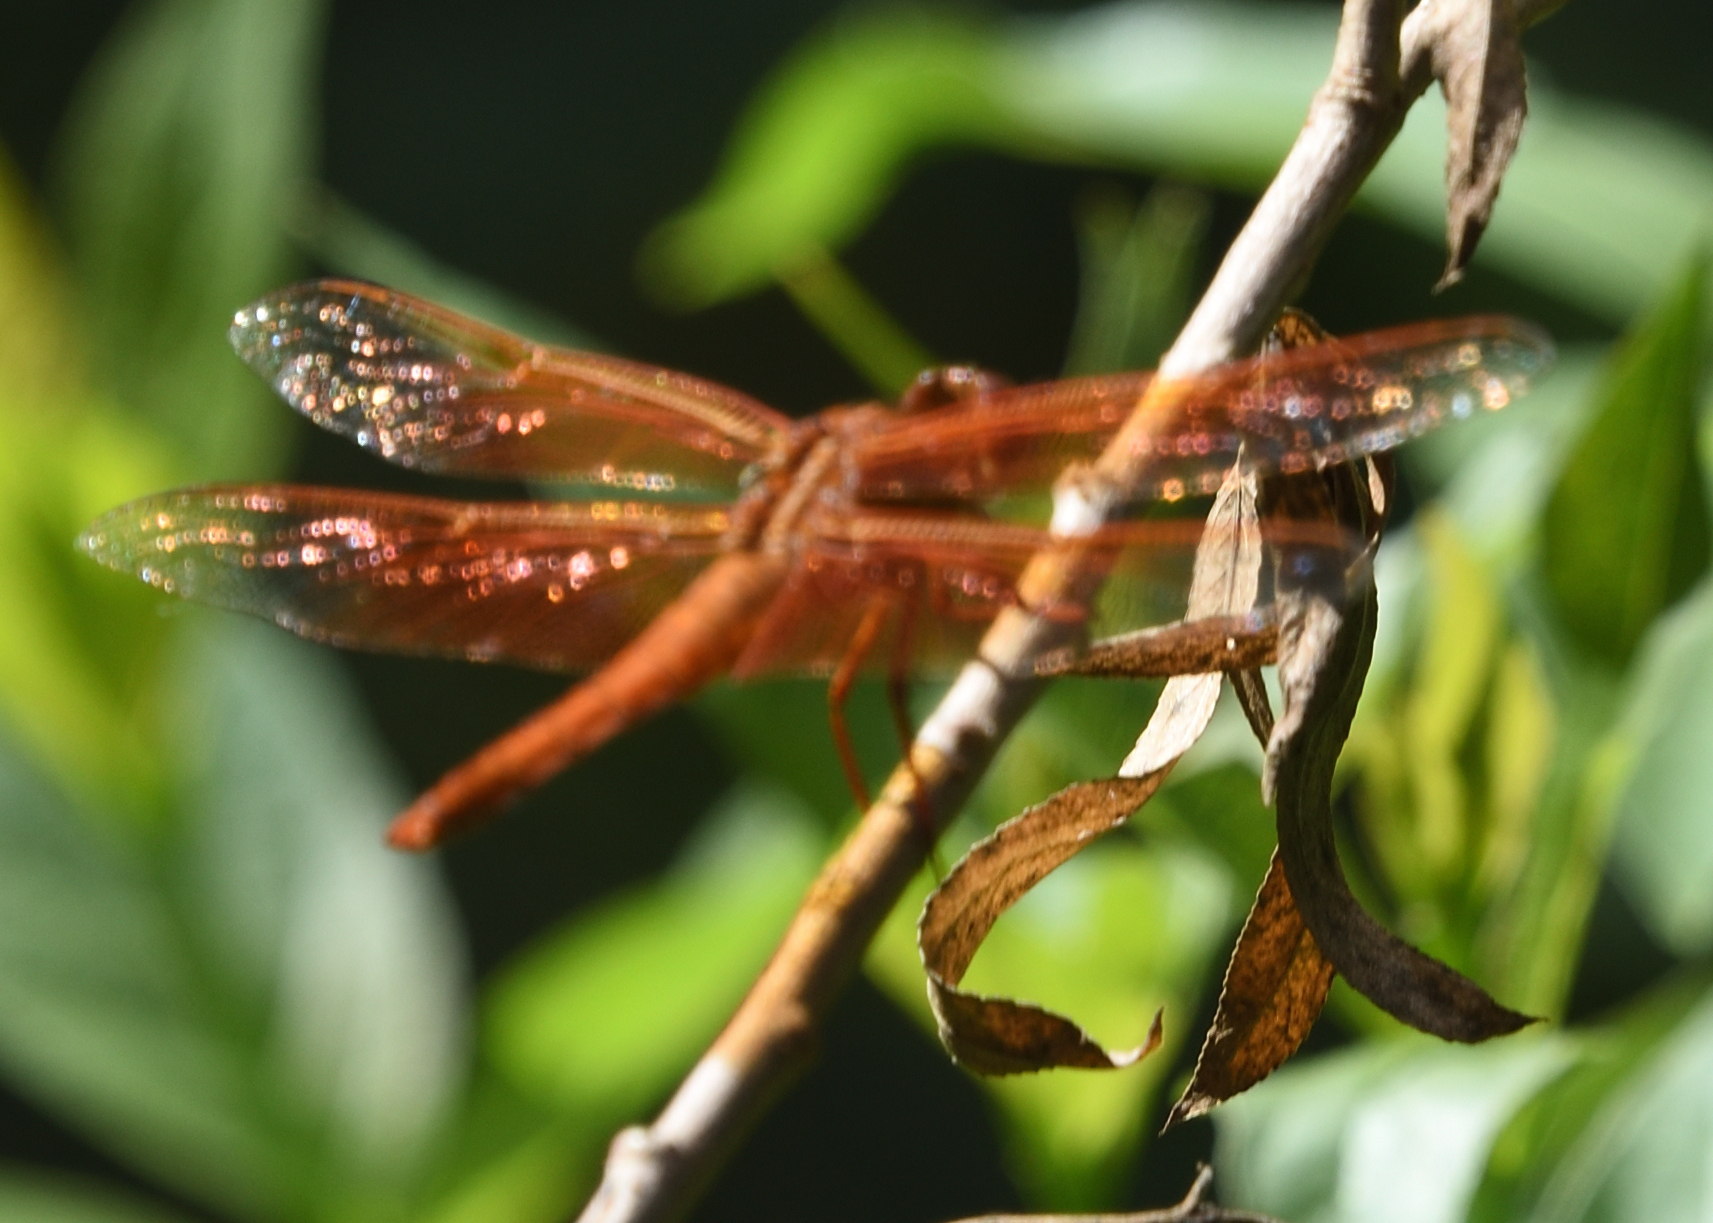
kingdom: Animalia
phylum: Arthropoda
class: Insecta
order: Odonata
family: Libellulidae
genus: Libellula
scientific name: Libellula saturata
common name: Flame skimmer
